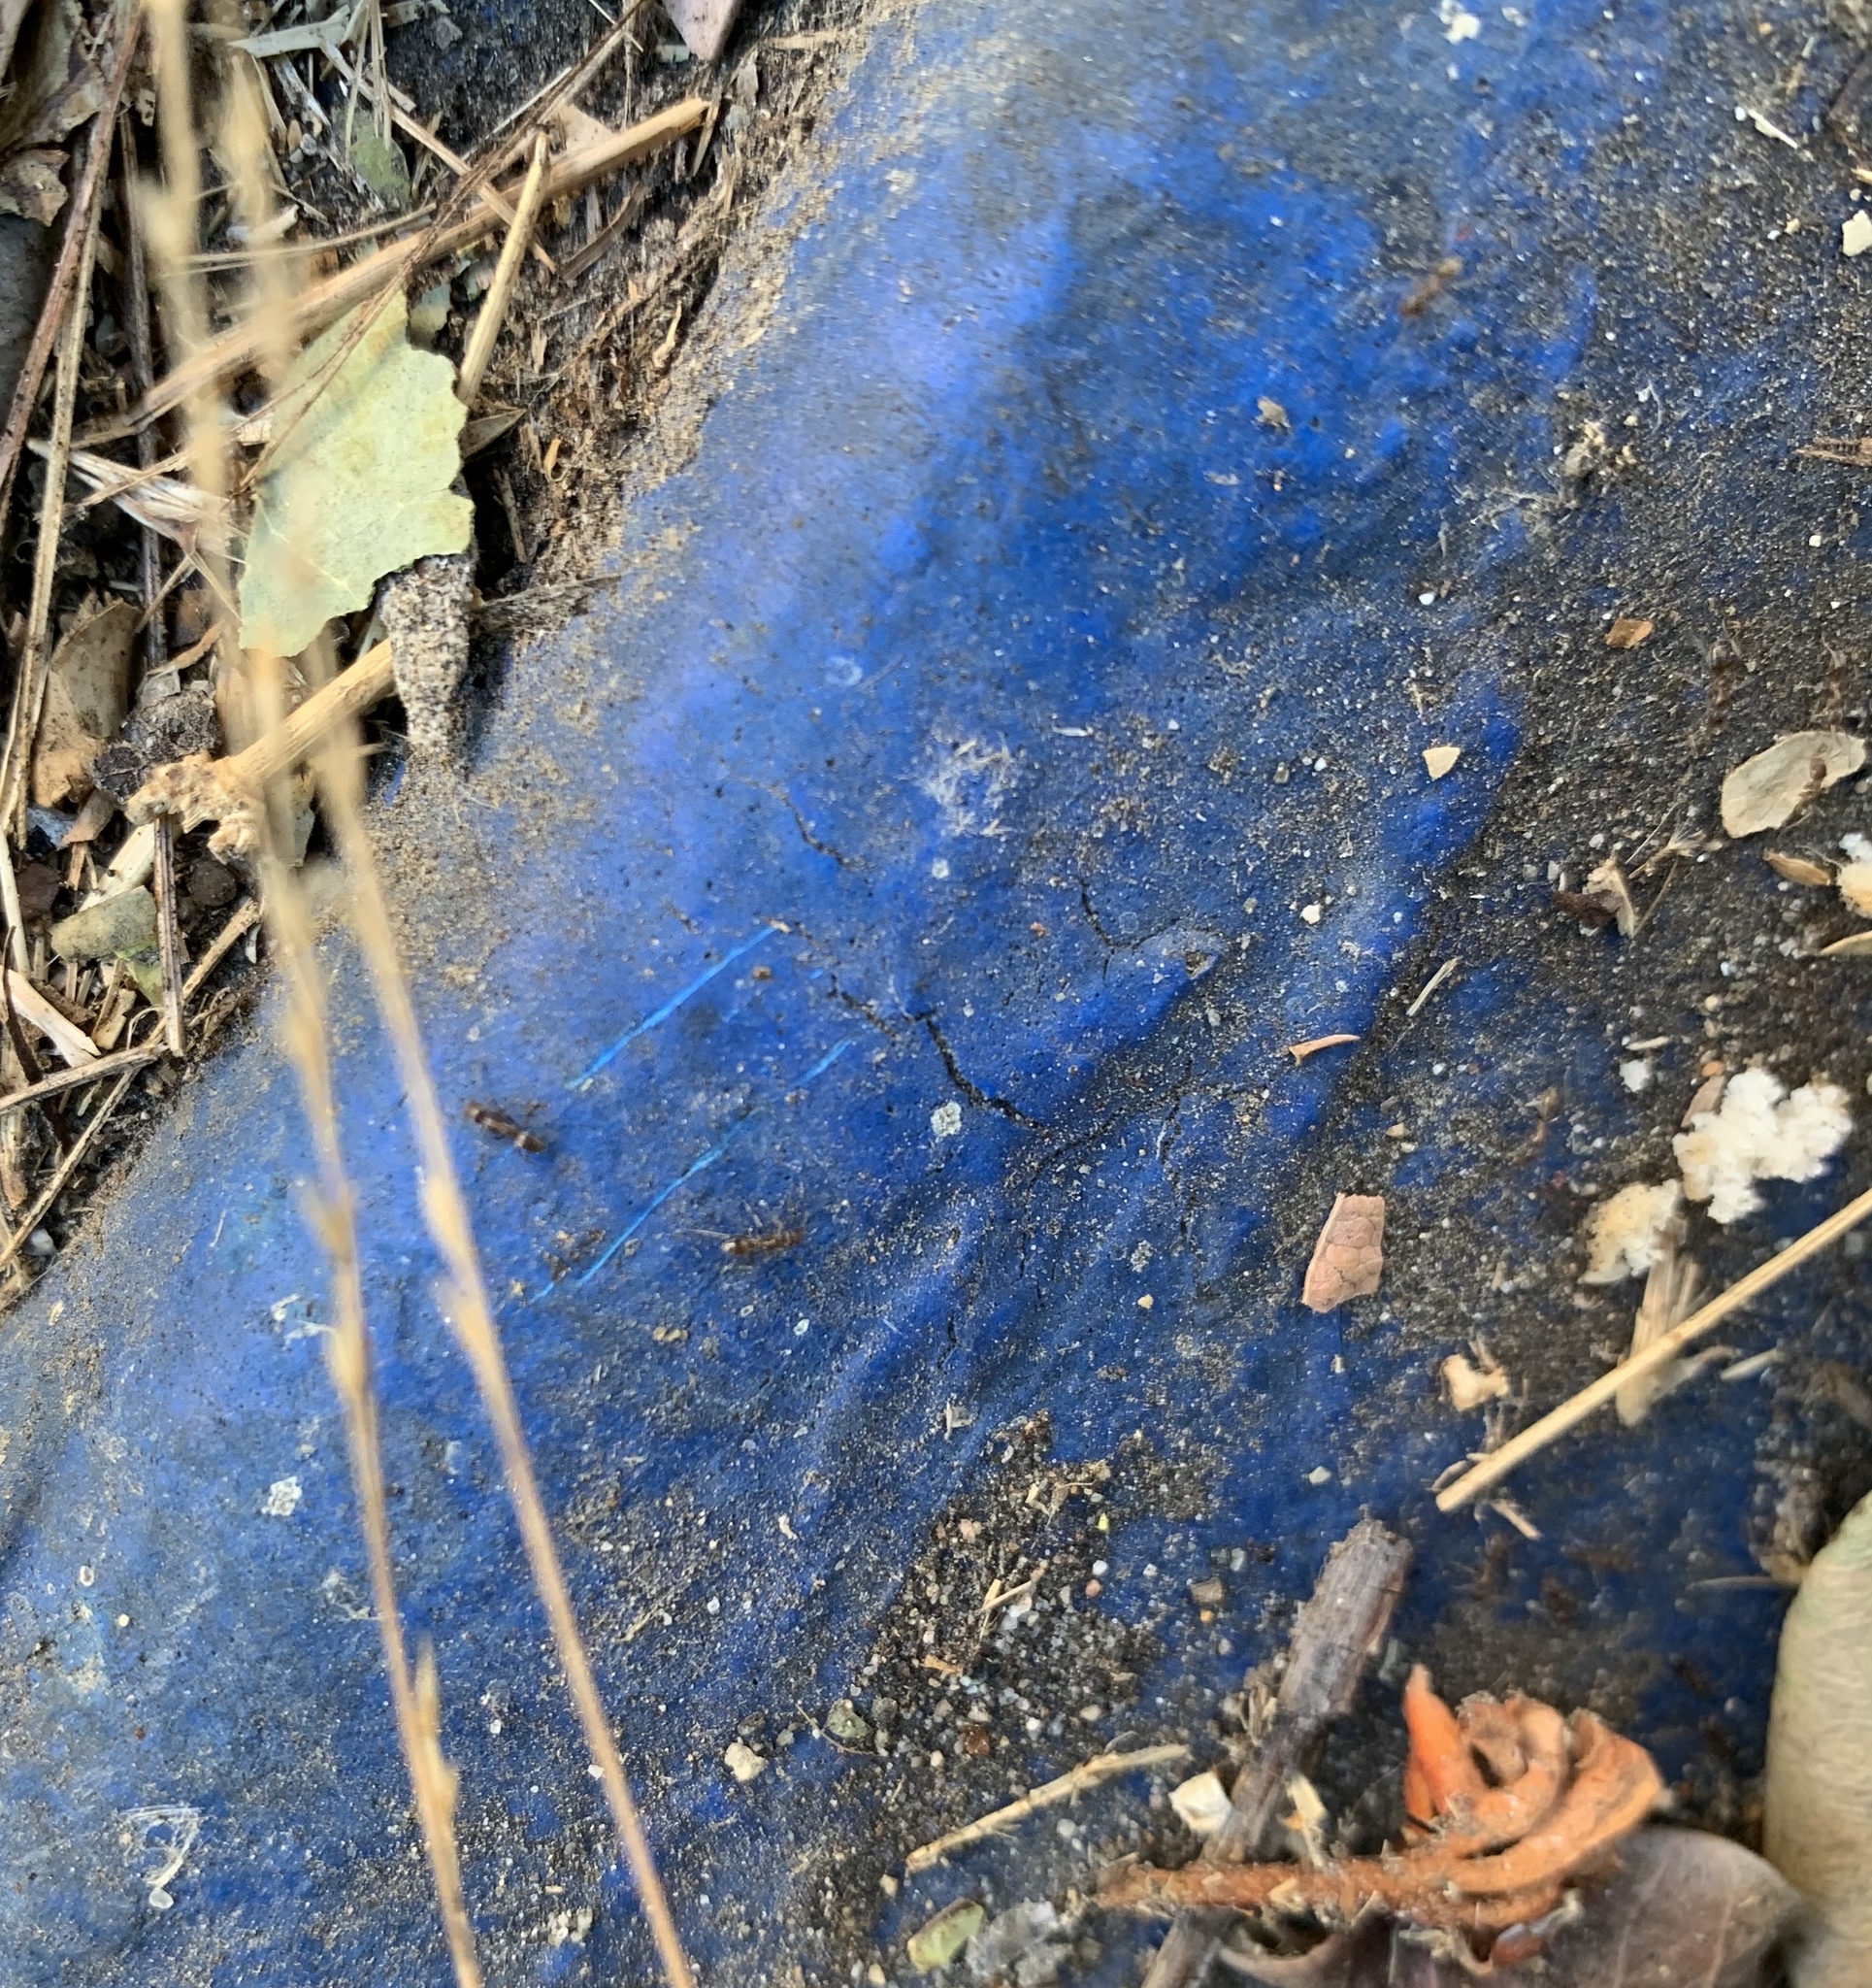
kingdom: Animalia
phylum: Arthropoda
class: Insecta
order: Hymenoptera
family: Formicidae
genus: Linepithema
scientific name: Linepithema humile
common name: Argentine ant
